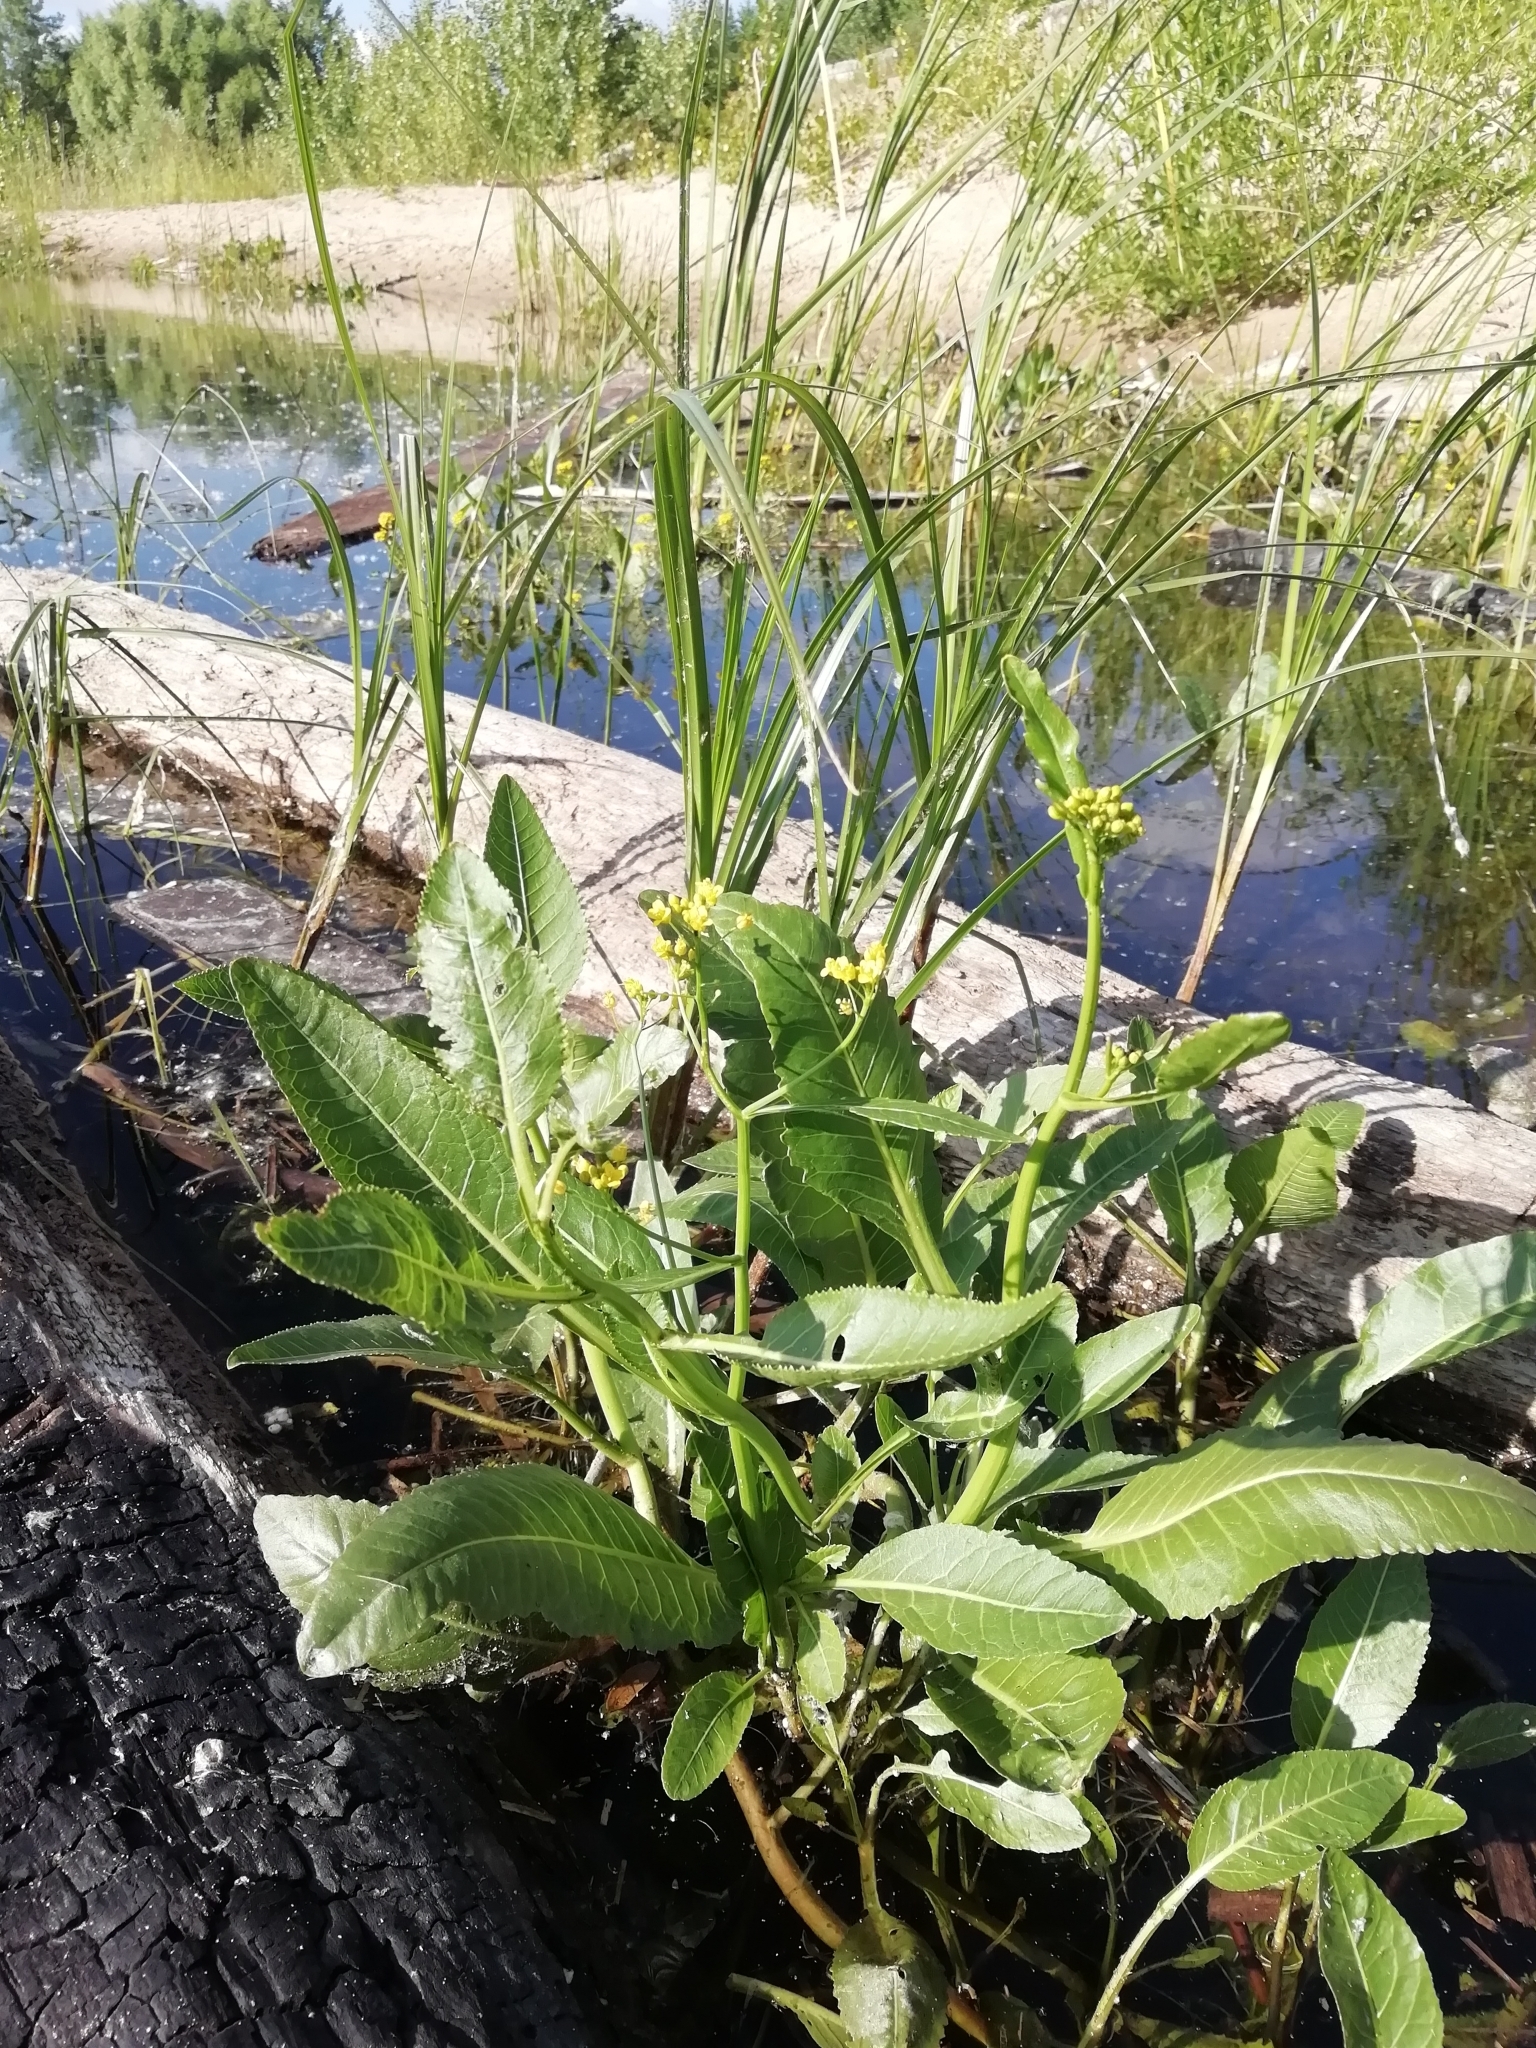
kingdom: Plantae
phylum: Tracheophyta
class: Magnoliopsida
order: Brassicales
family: Brassicaceae
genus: Rorippa
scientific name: Rorippa amphibia
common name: Great yellow-cress
